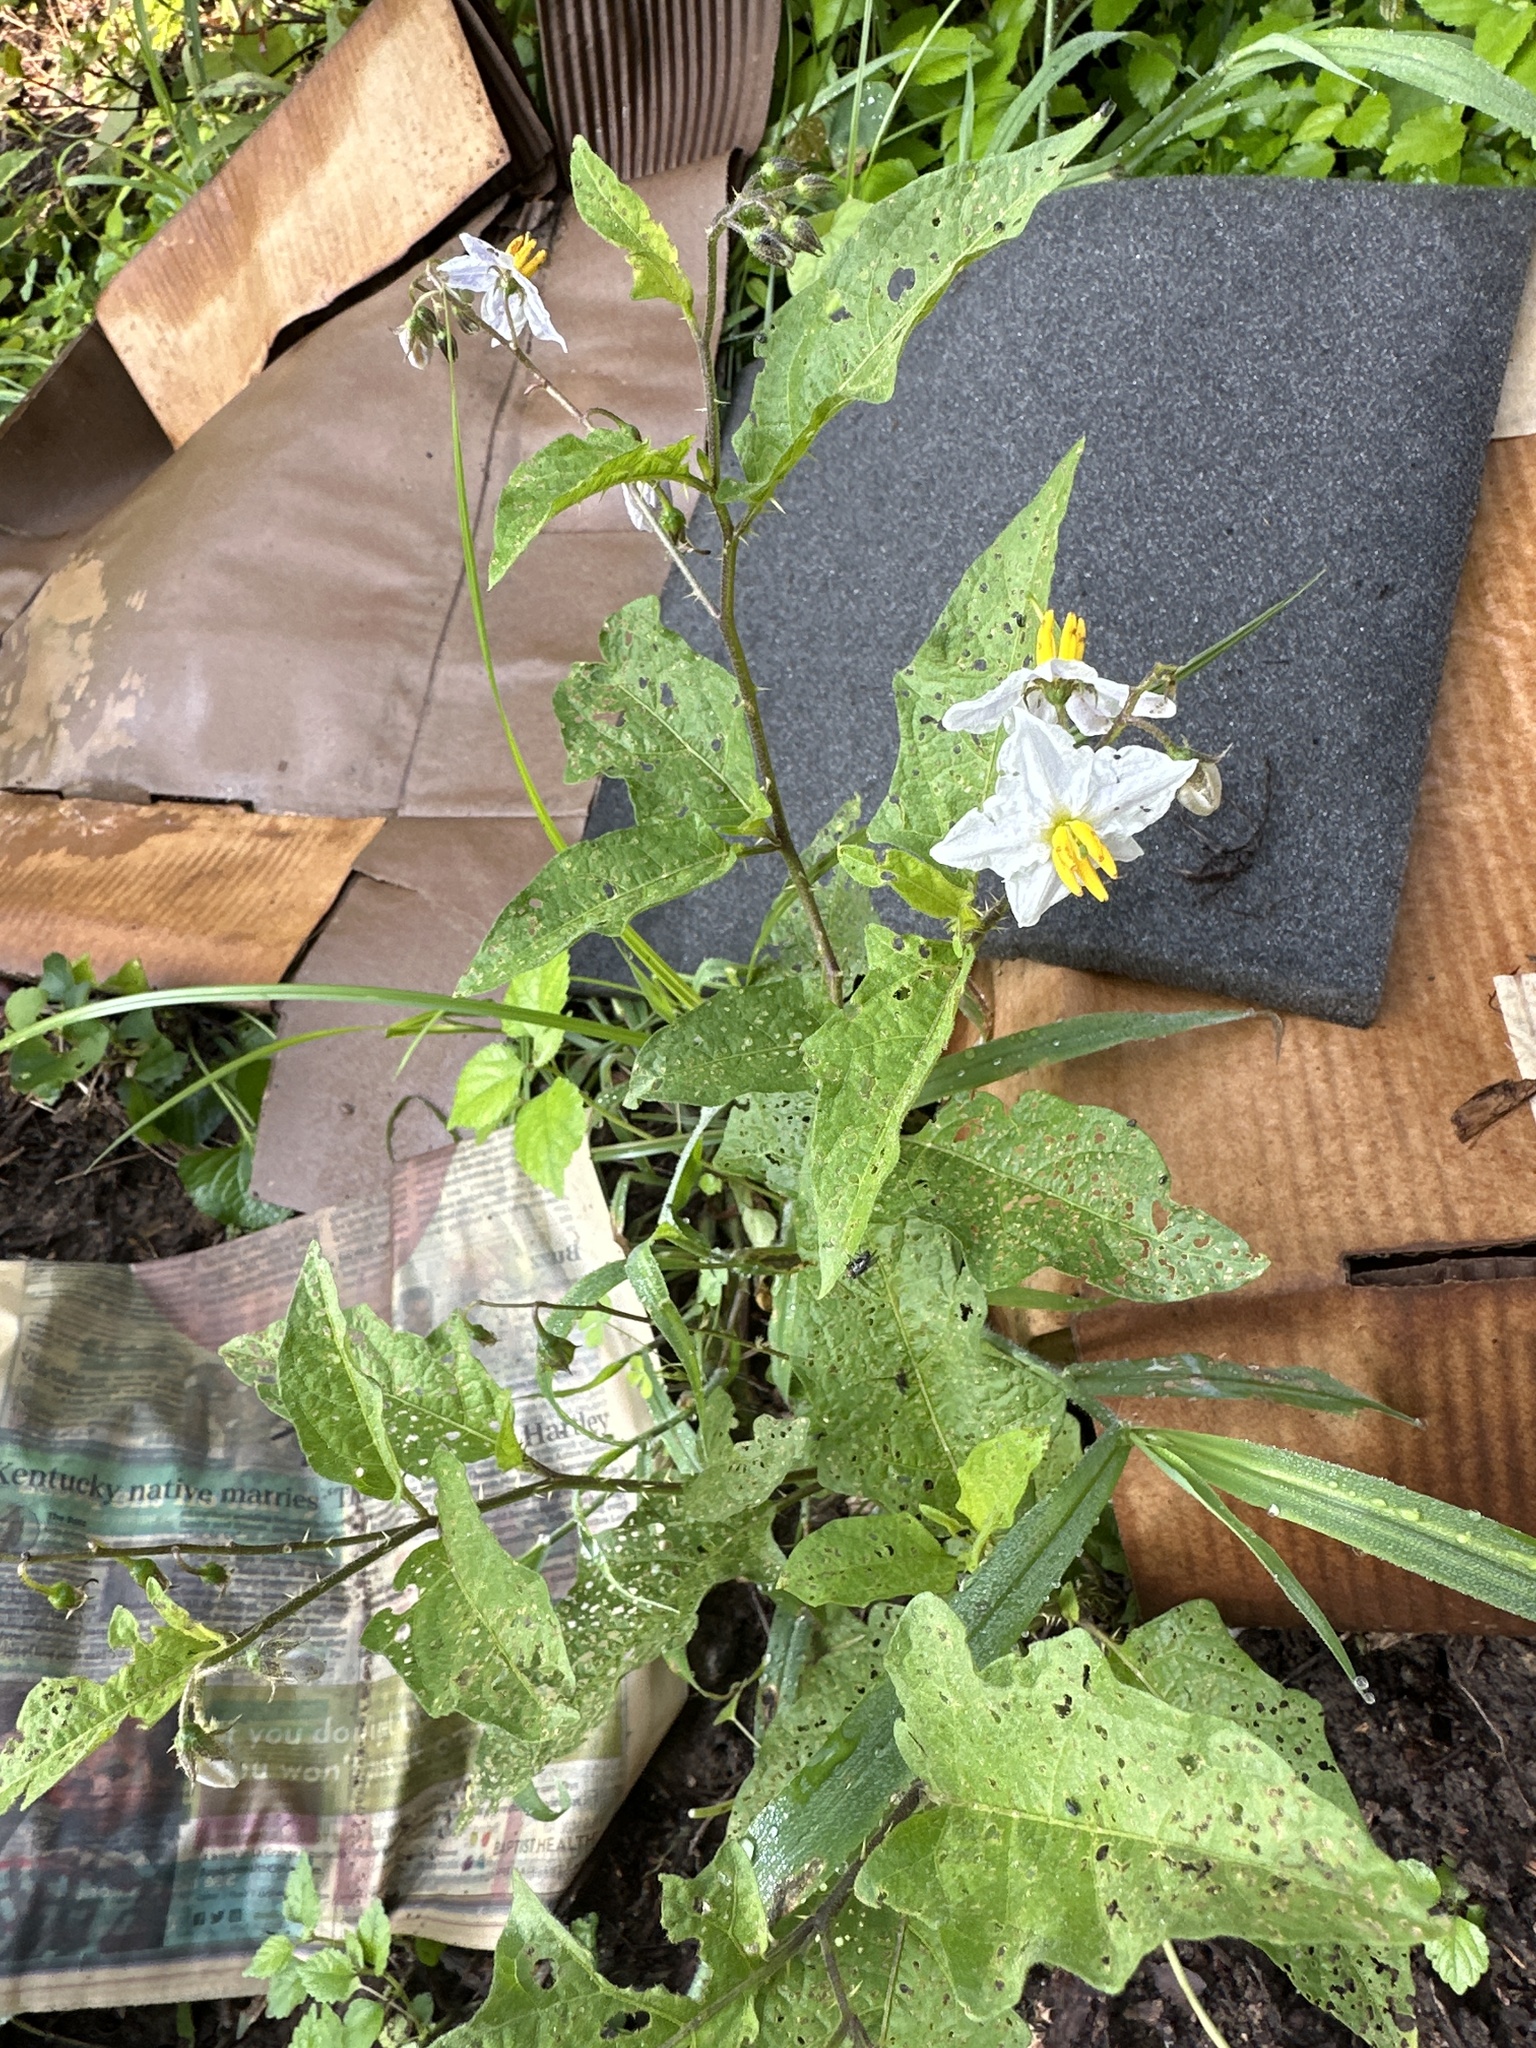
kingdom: Plantae
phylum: Tracheophyta
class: Magnoliopsida
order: Solanales
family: Solanaceae
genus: Solanum
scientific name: Solanum carolinense
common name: Horse-nettle
